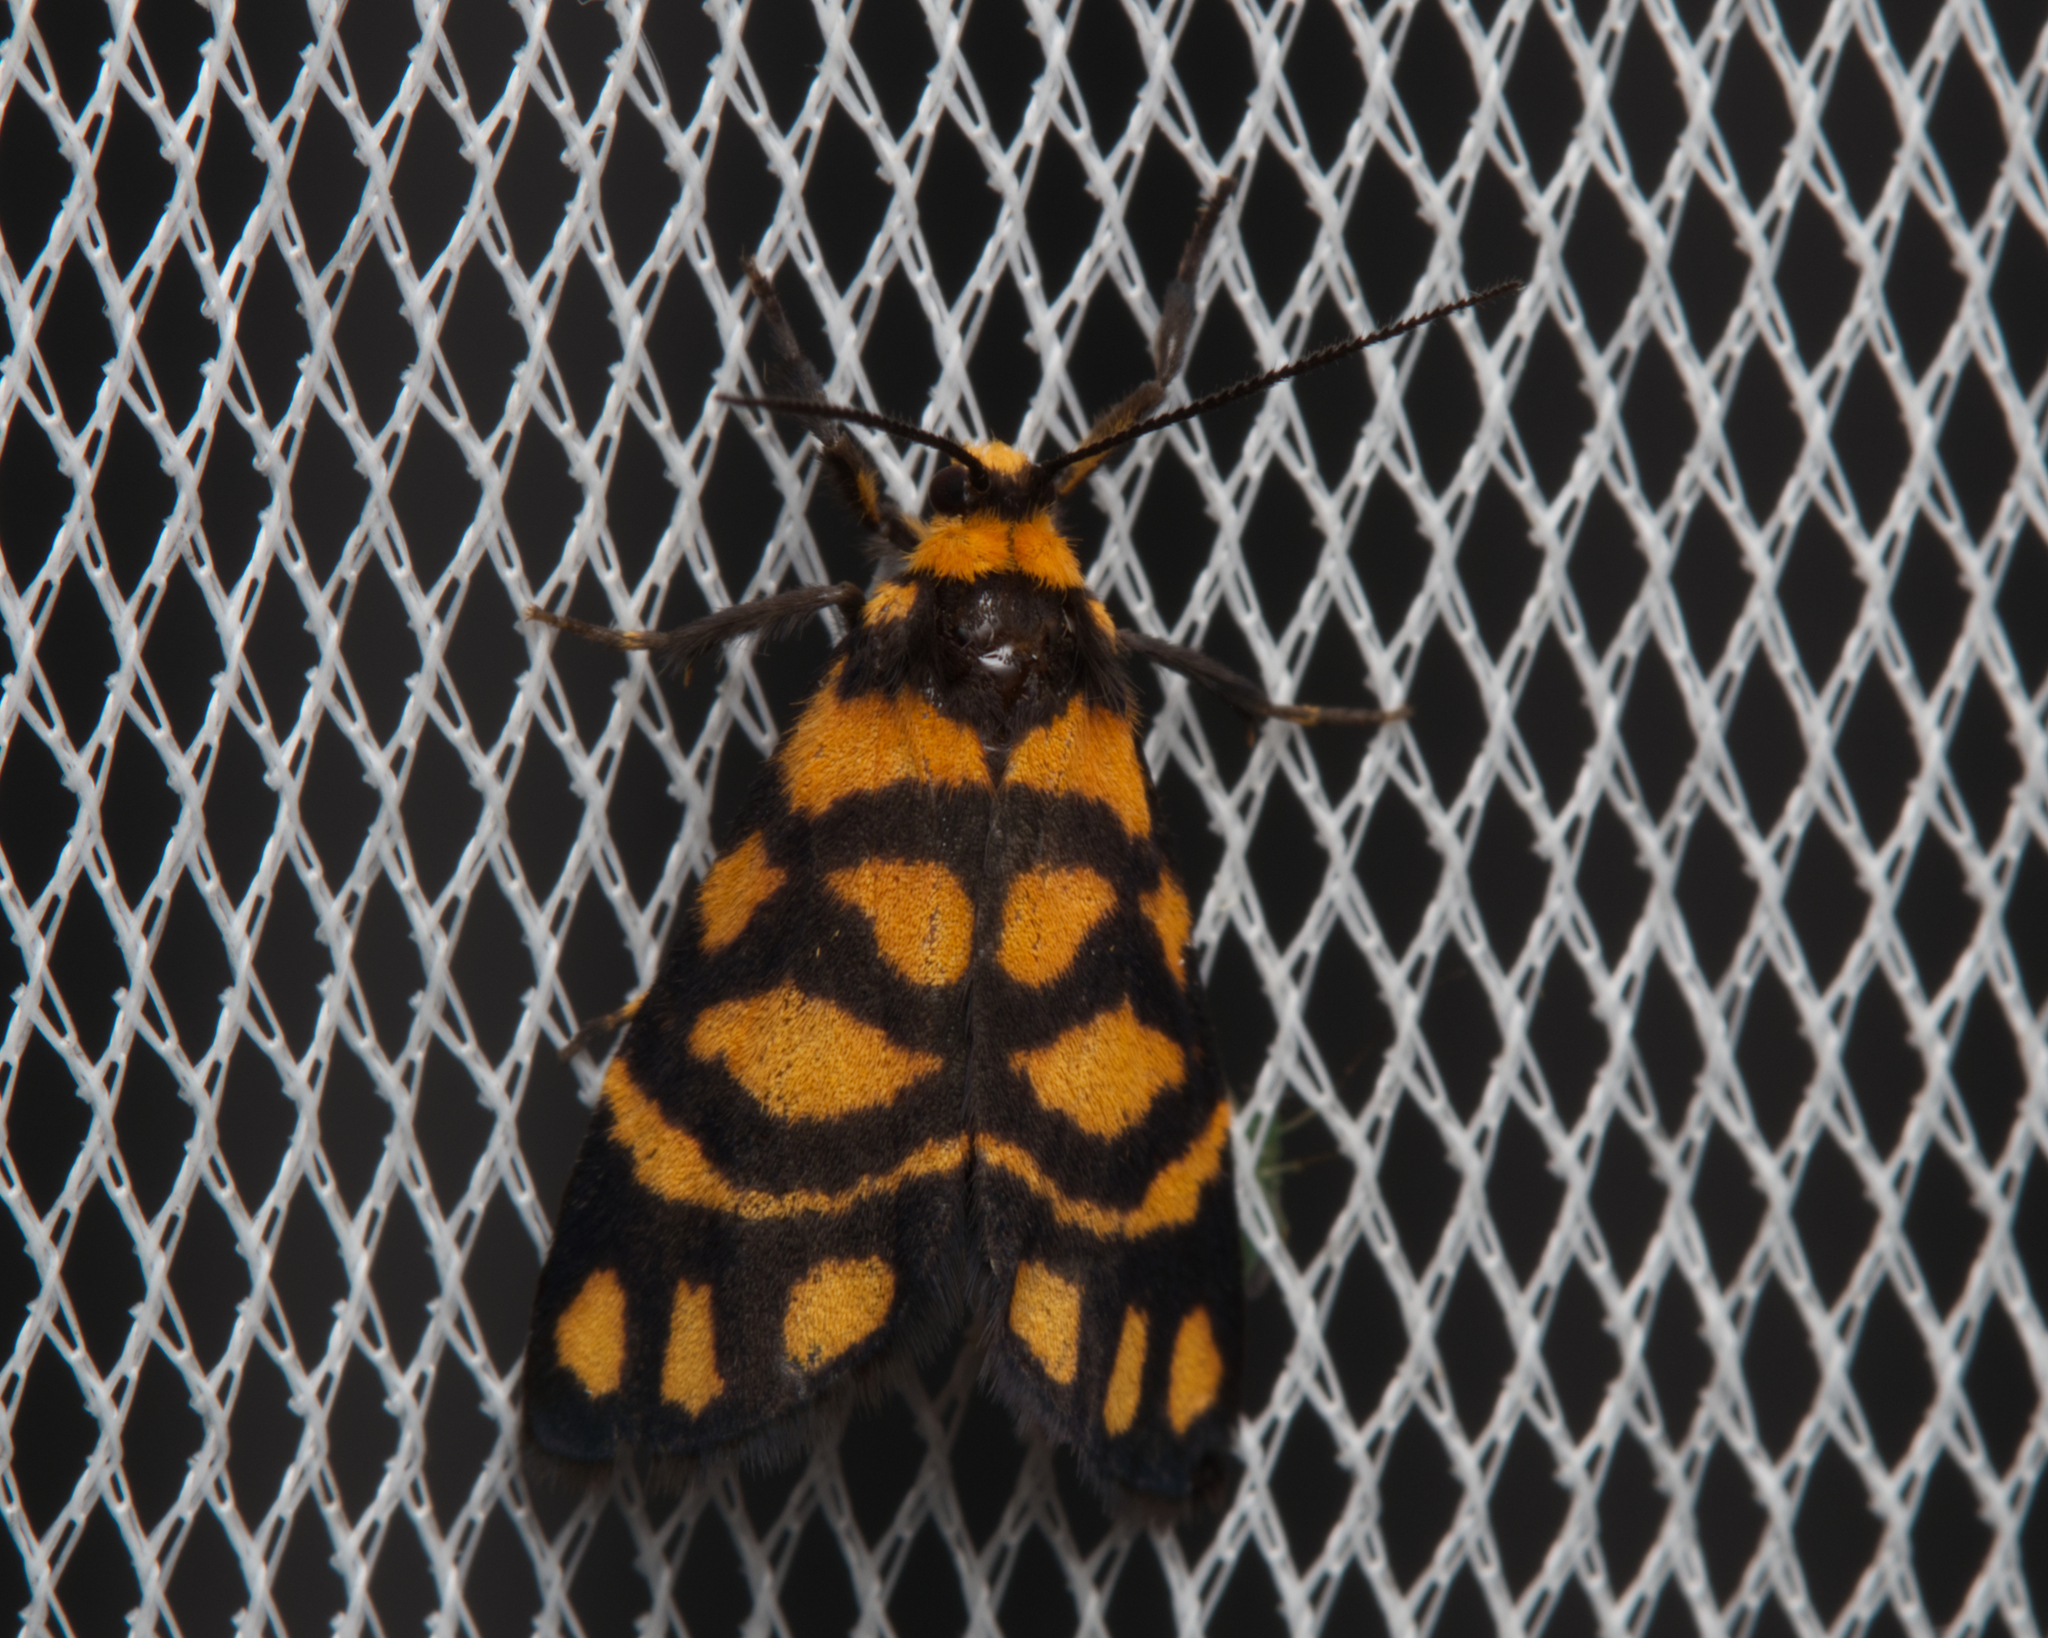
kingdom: Animalia
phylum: Arthropoda
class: Insecta
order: Lepidoptera
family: Erebidae
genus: Asura
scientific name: Asura lydia
